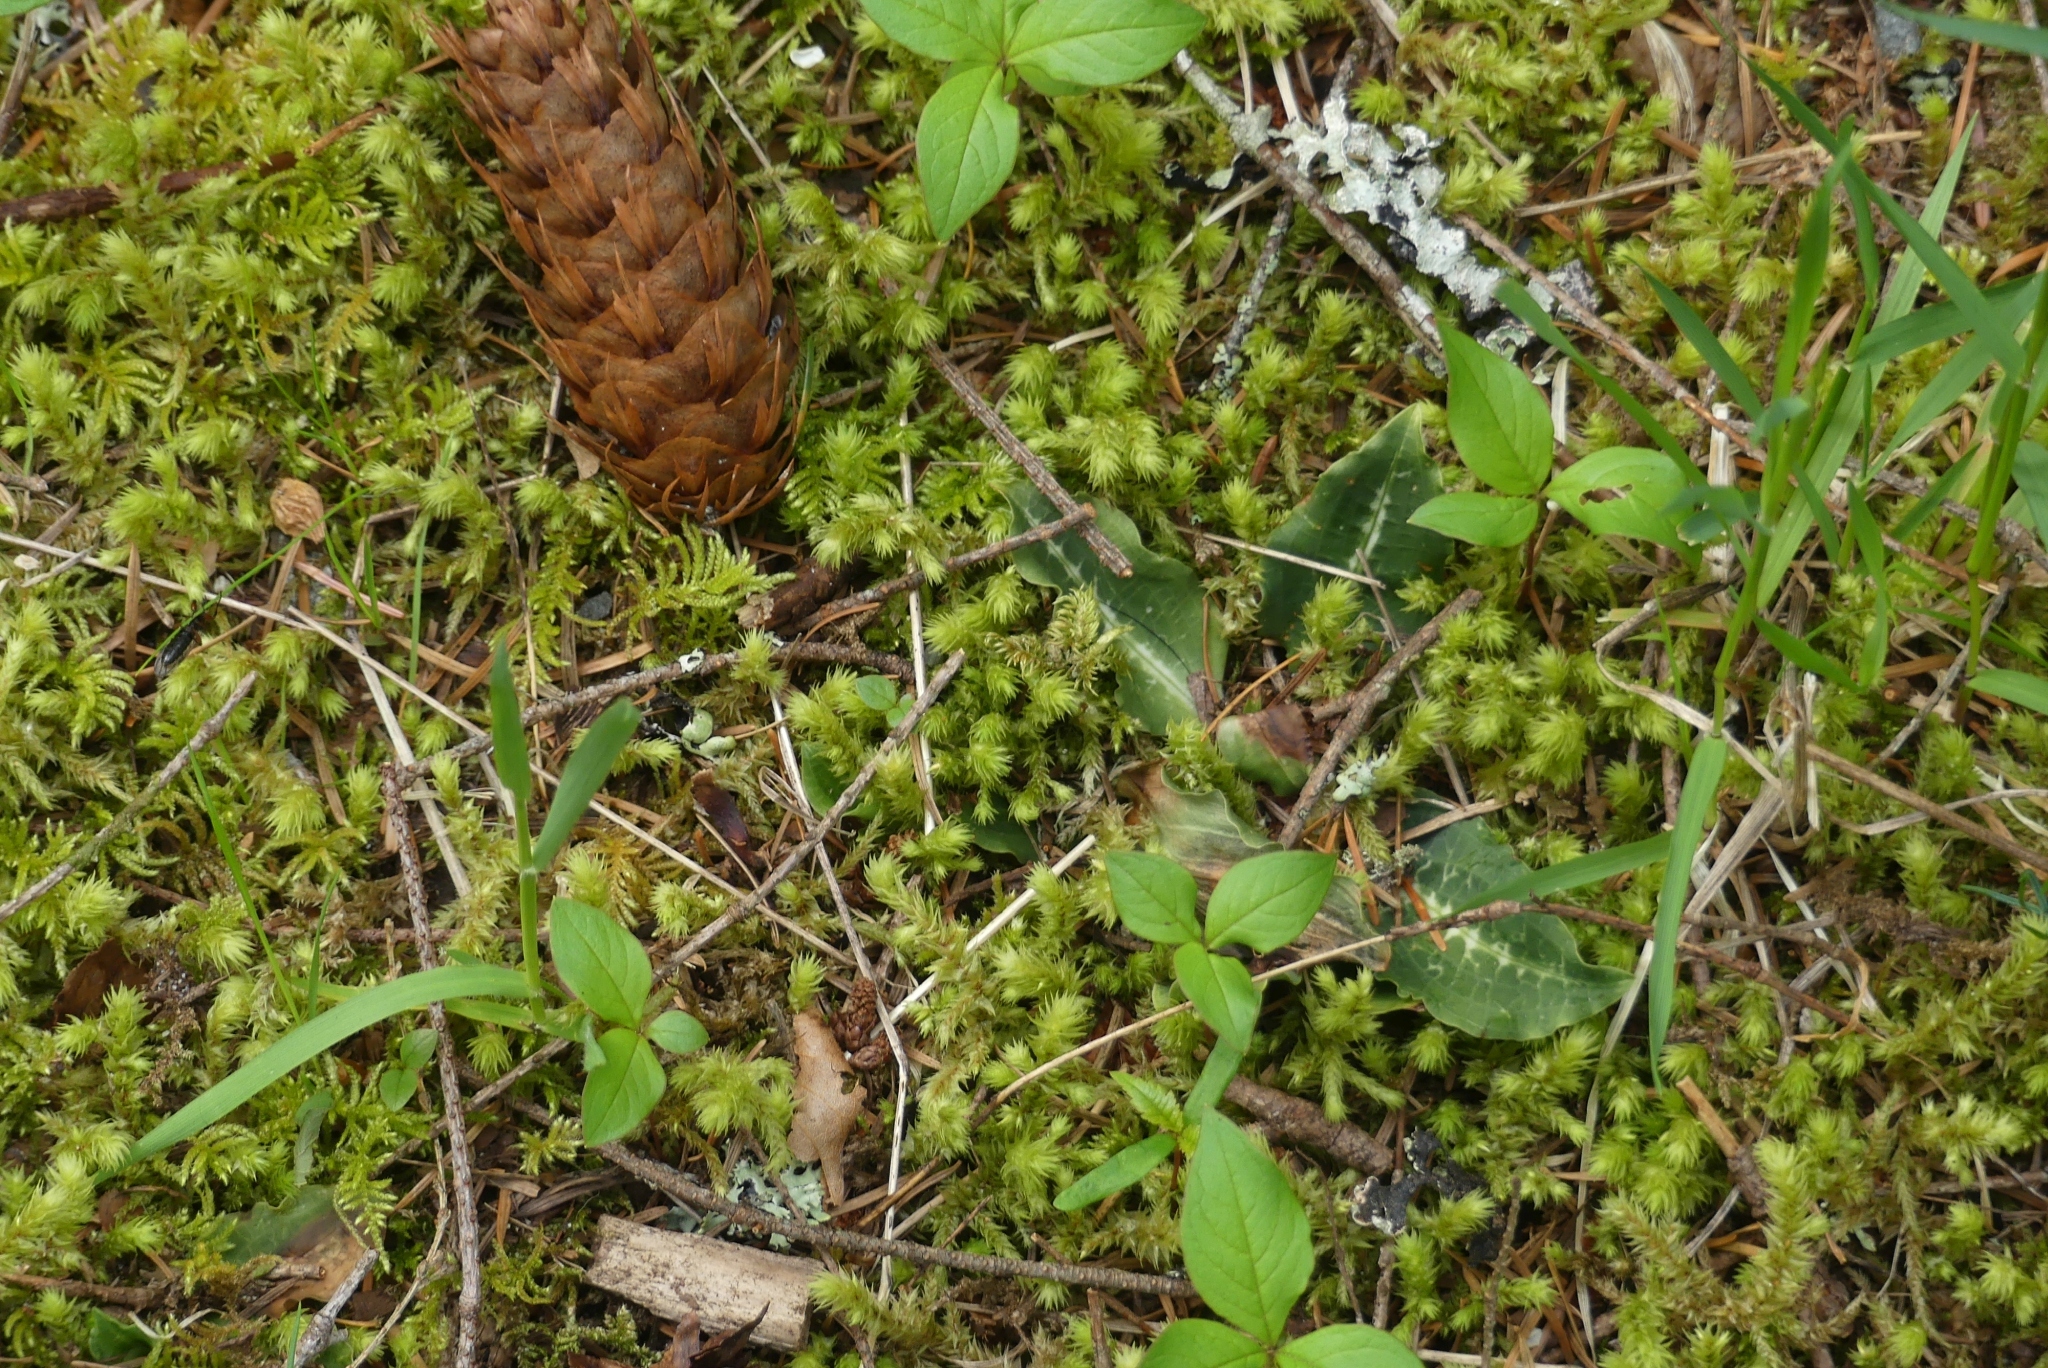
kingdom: Plantae
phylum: Tracheophyta
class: Liliopsida
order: Asparagales
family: Orchidaceae
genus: Goodyera
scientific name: Goodyera oblongifolia
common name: Giant rattlesnake-plantain
